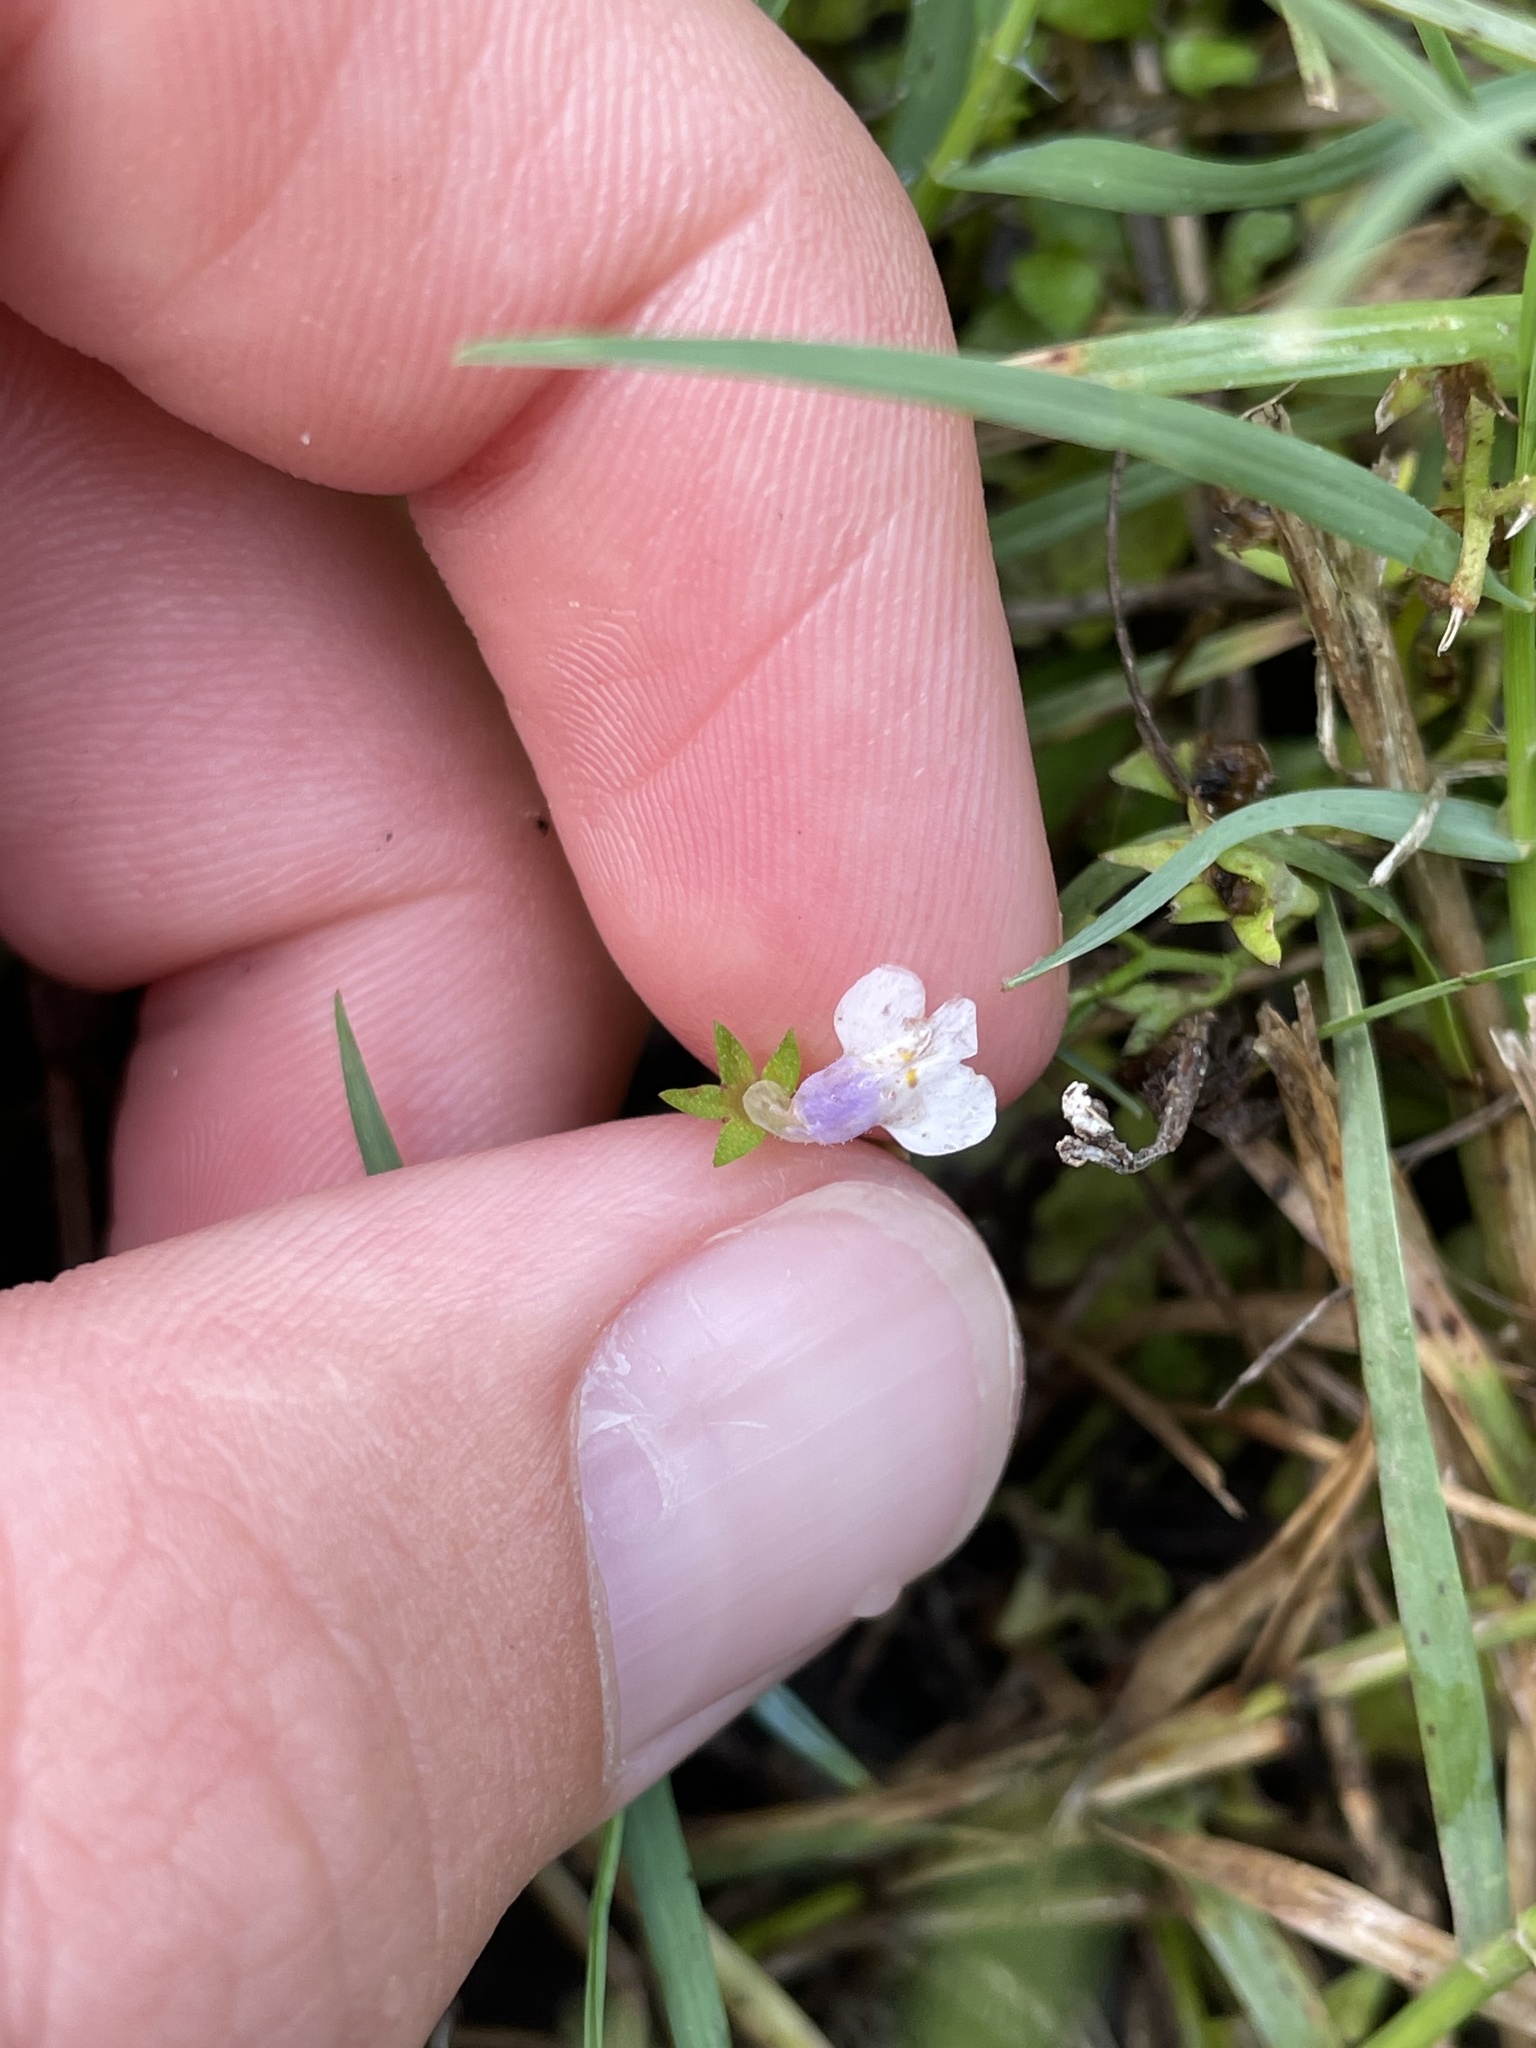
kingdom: Plantae
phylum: Tracheophyta
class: Magnoliopsida
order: Lamiales
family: Mazaceae
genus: Mazus
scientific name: Mazus pumilus
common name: Japanese mazus
